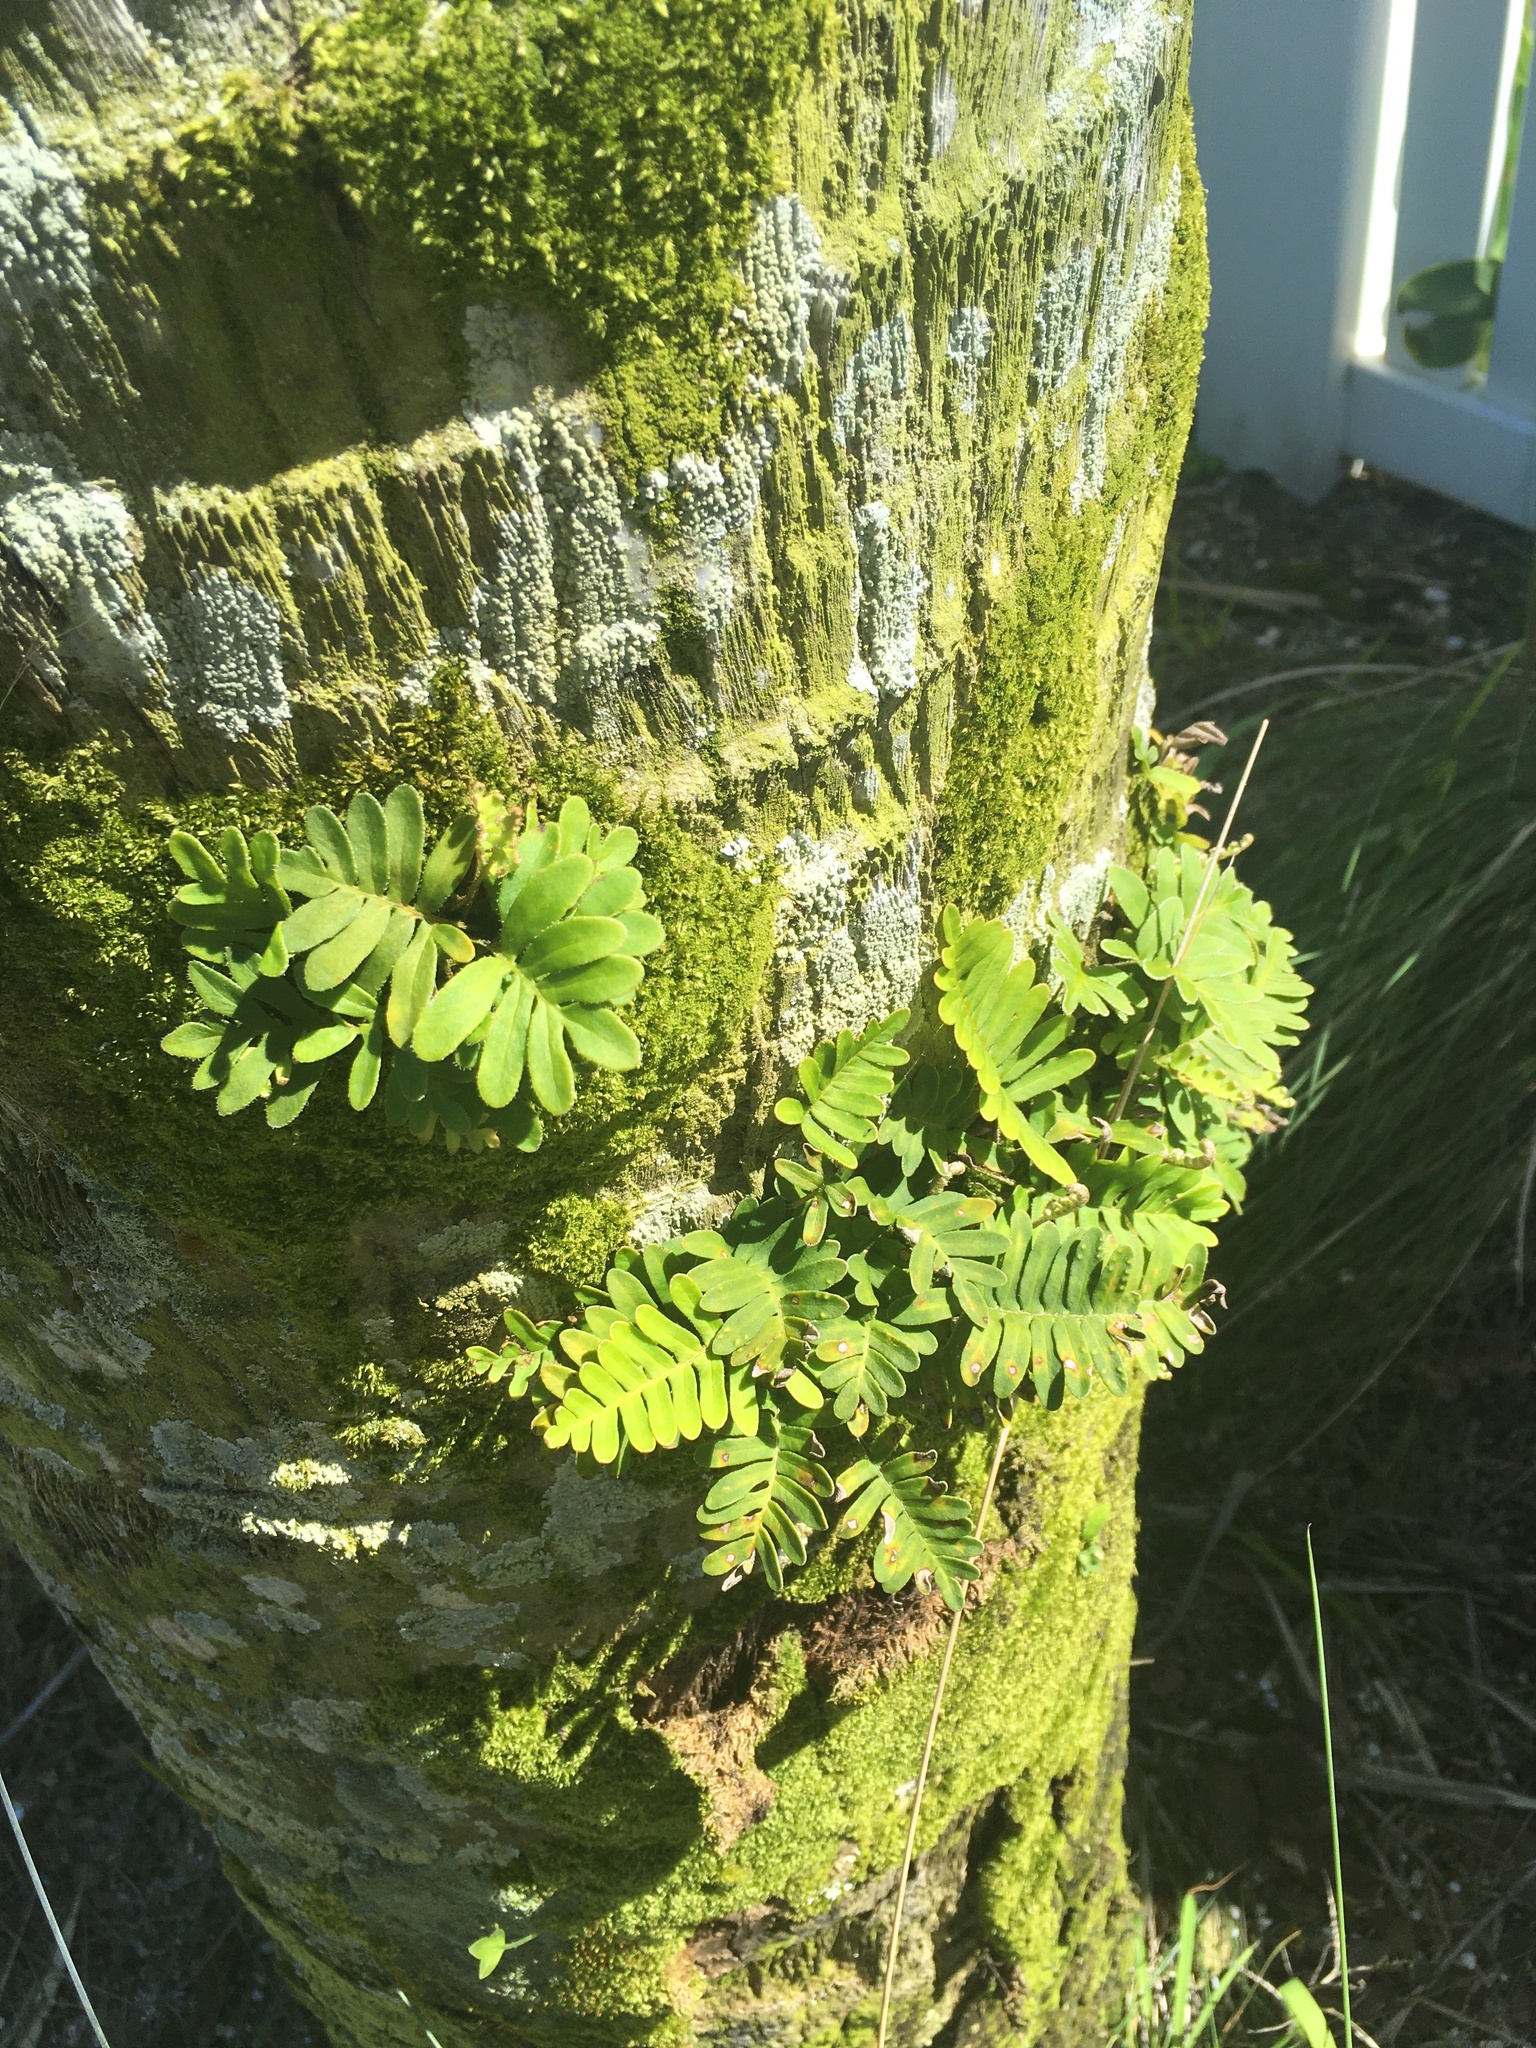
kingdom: Plantae
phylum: Tracheophyta
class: Polypodiopsida
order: Polypodiales
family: Polypodiaceae
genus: Pleopeltis
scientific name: Pleopeltis michauxiana
